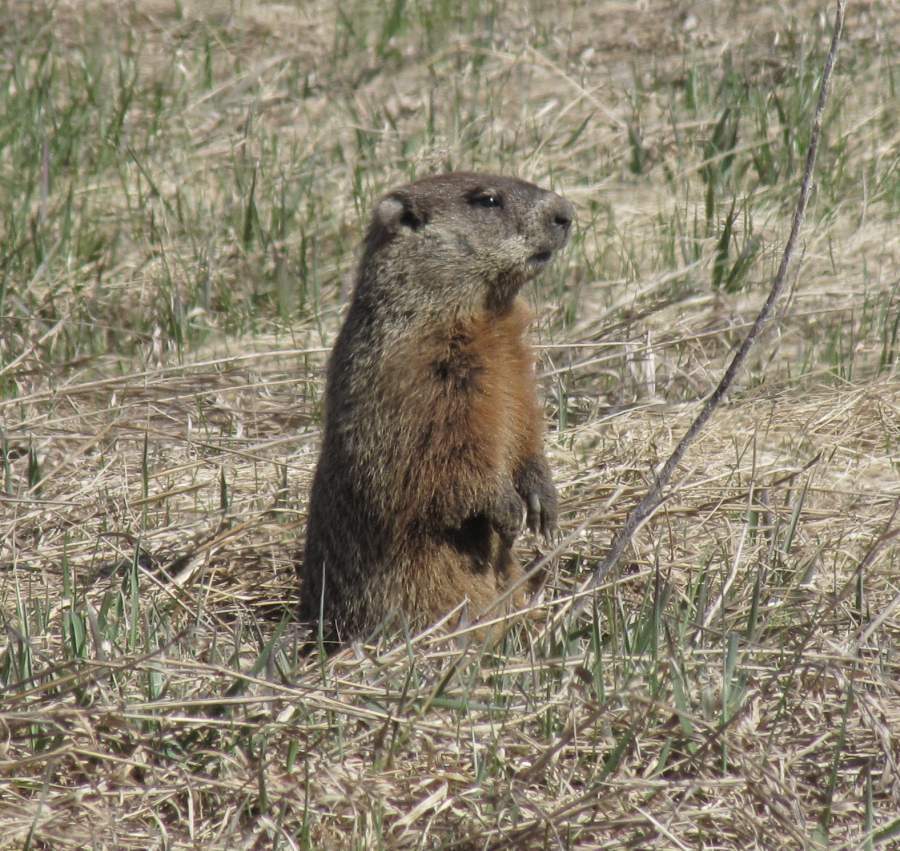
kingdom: Animalia
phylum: Chordata
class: Mammalia
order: Rodentia
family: Sciuridae
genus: Marmota
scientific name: Marmota monax
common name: Groundhog
